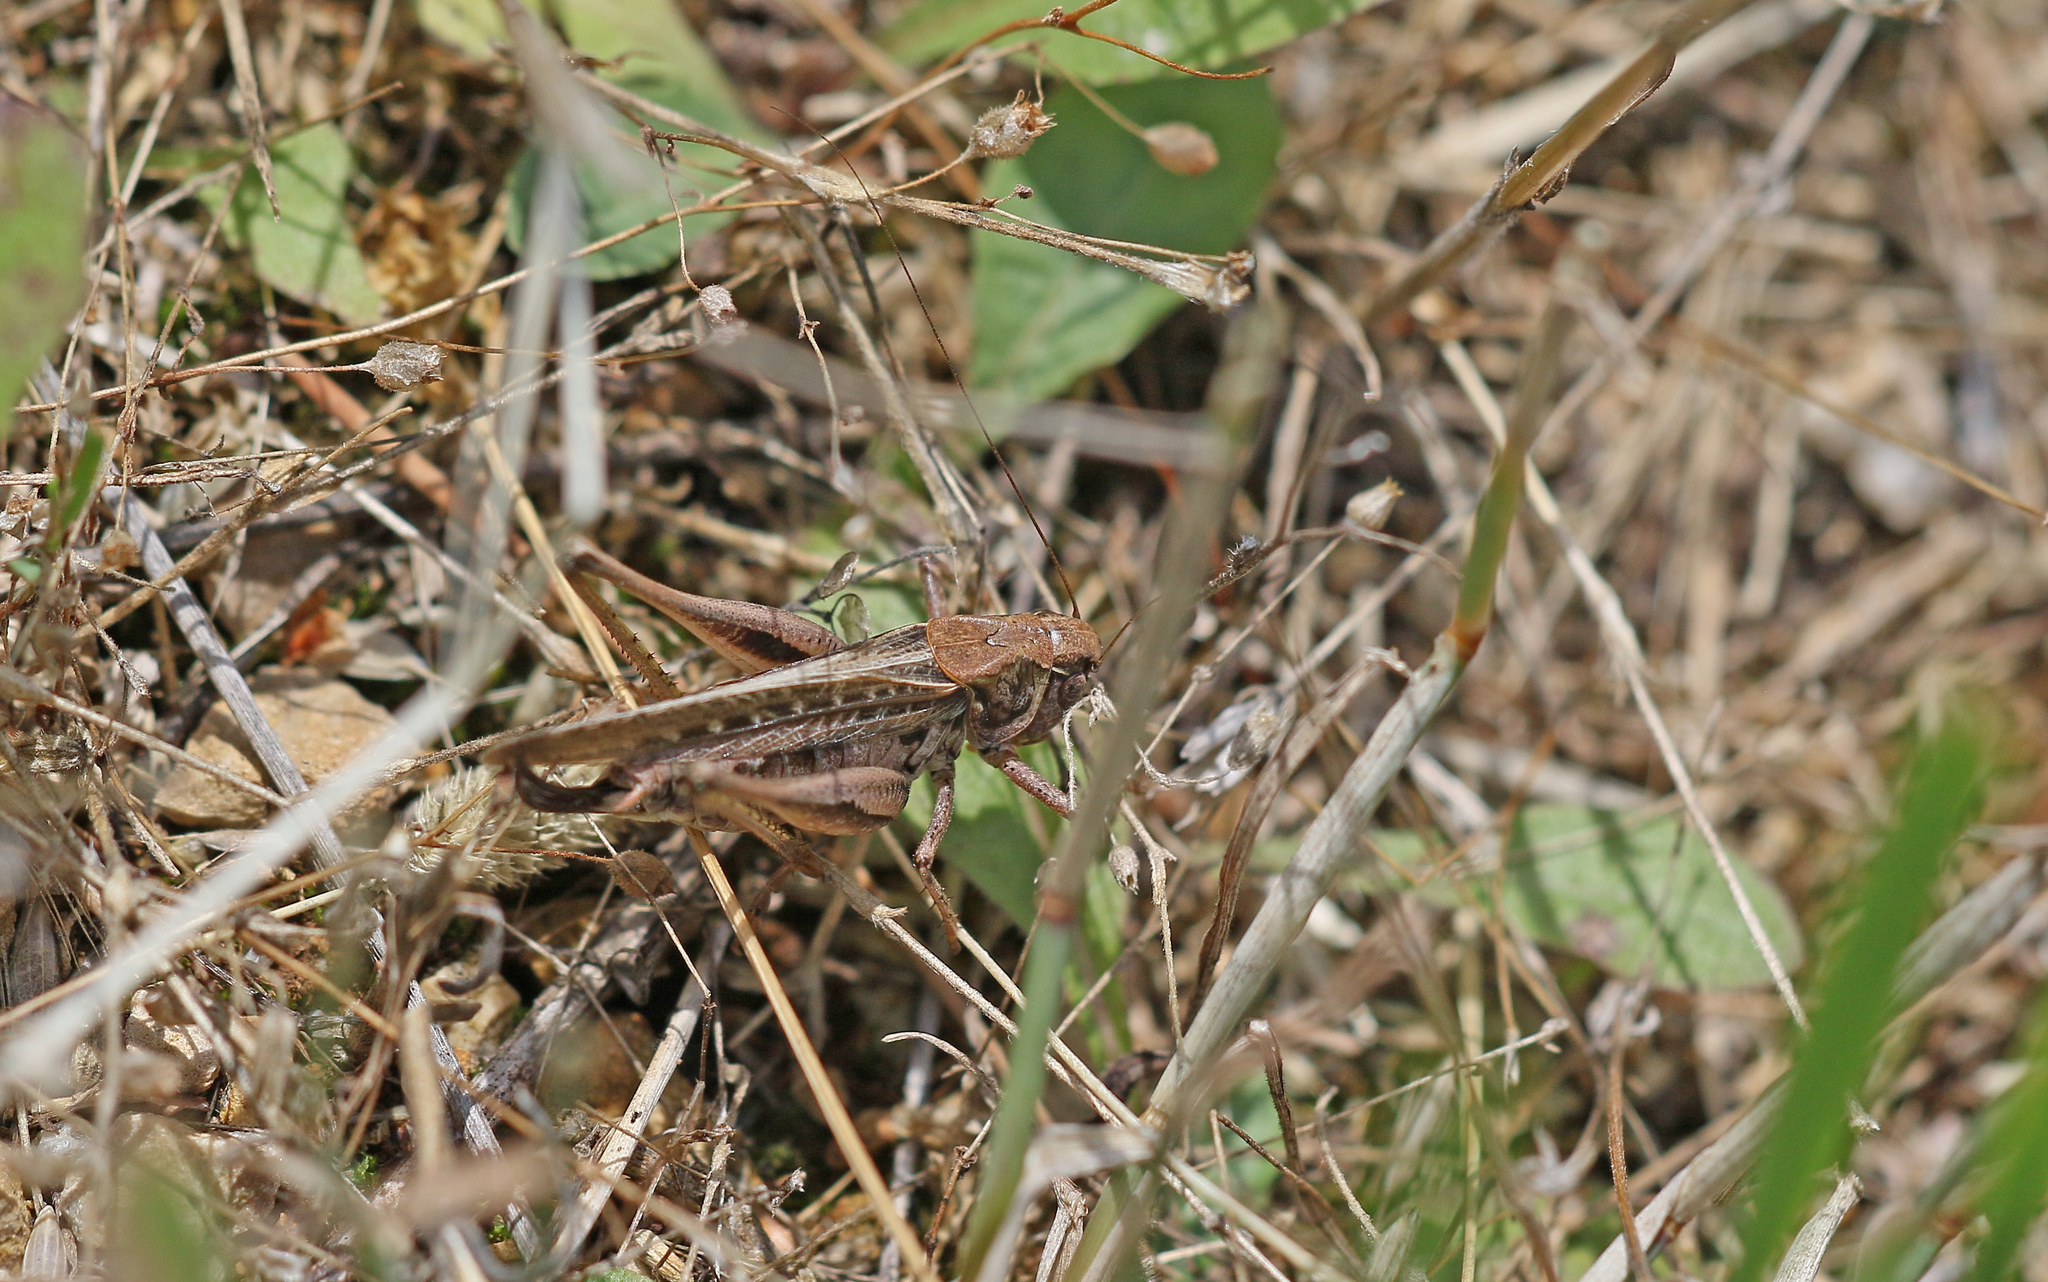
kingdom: Animalia
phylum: Arthropoda
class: Insecta
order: Orthoptera
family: Tettigoniidae
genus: Platycleis
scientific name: Platycleis albopunctata
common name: Grey bush-cricket
